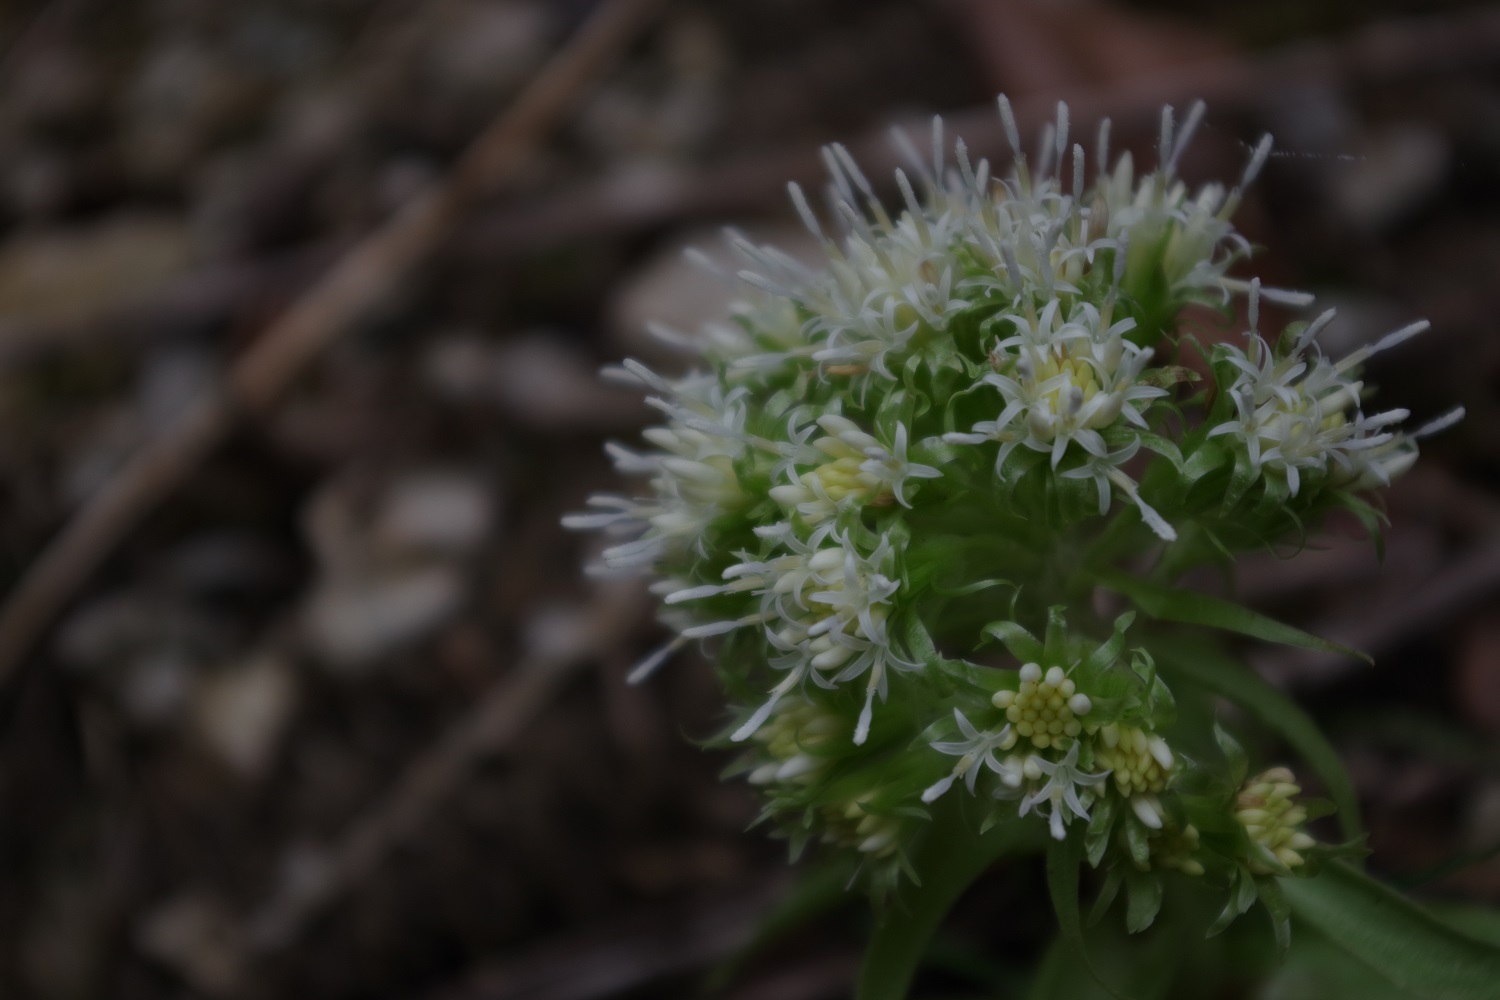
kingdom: Plantae
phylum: Tracheophyta
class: Magnoliopsida
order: Asterales
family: Asteraceae
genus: Petasites
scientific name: Petasites albus
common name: White butterbur
